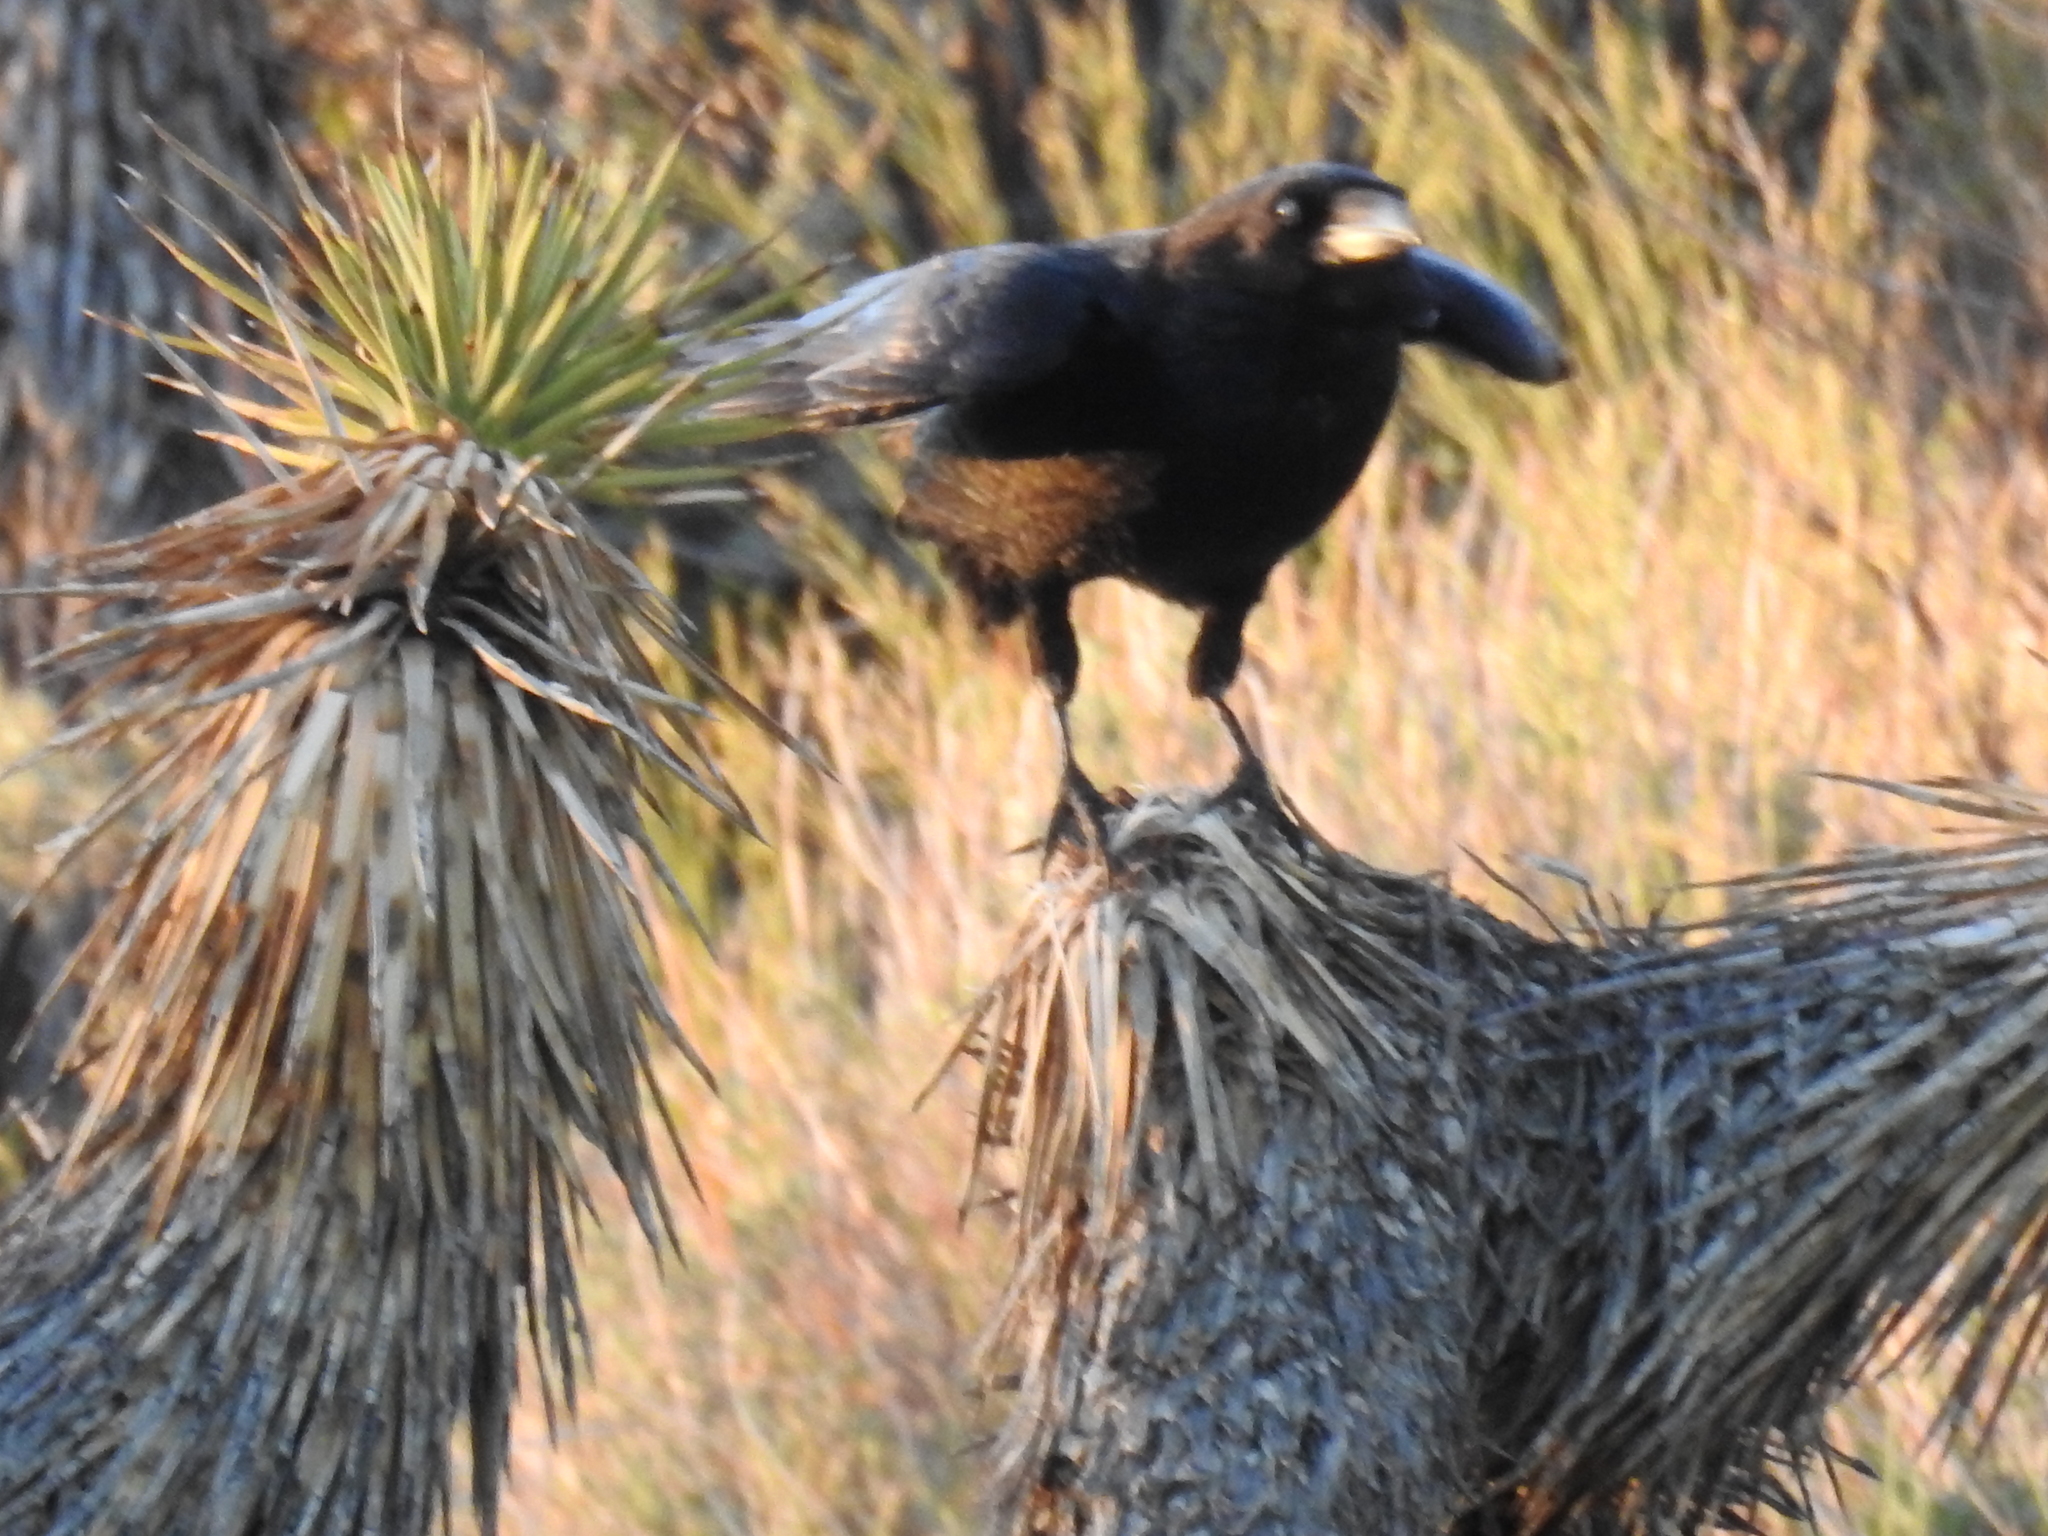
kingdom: Animalia
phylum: Chordata
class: Aves
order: Passeriformes
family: Corvidae
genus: Corvus
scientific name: Corvus corax
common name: Common raven
